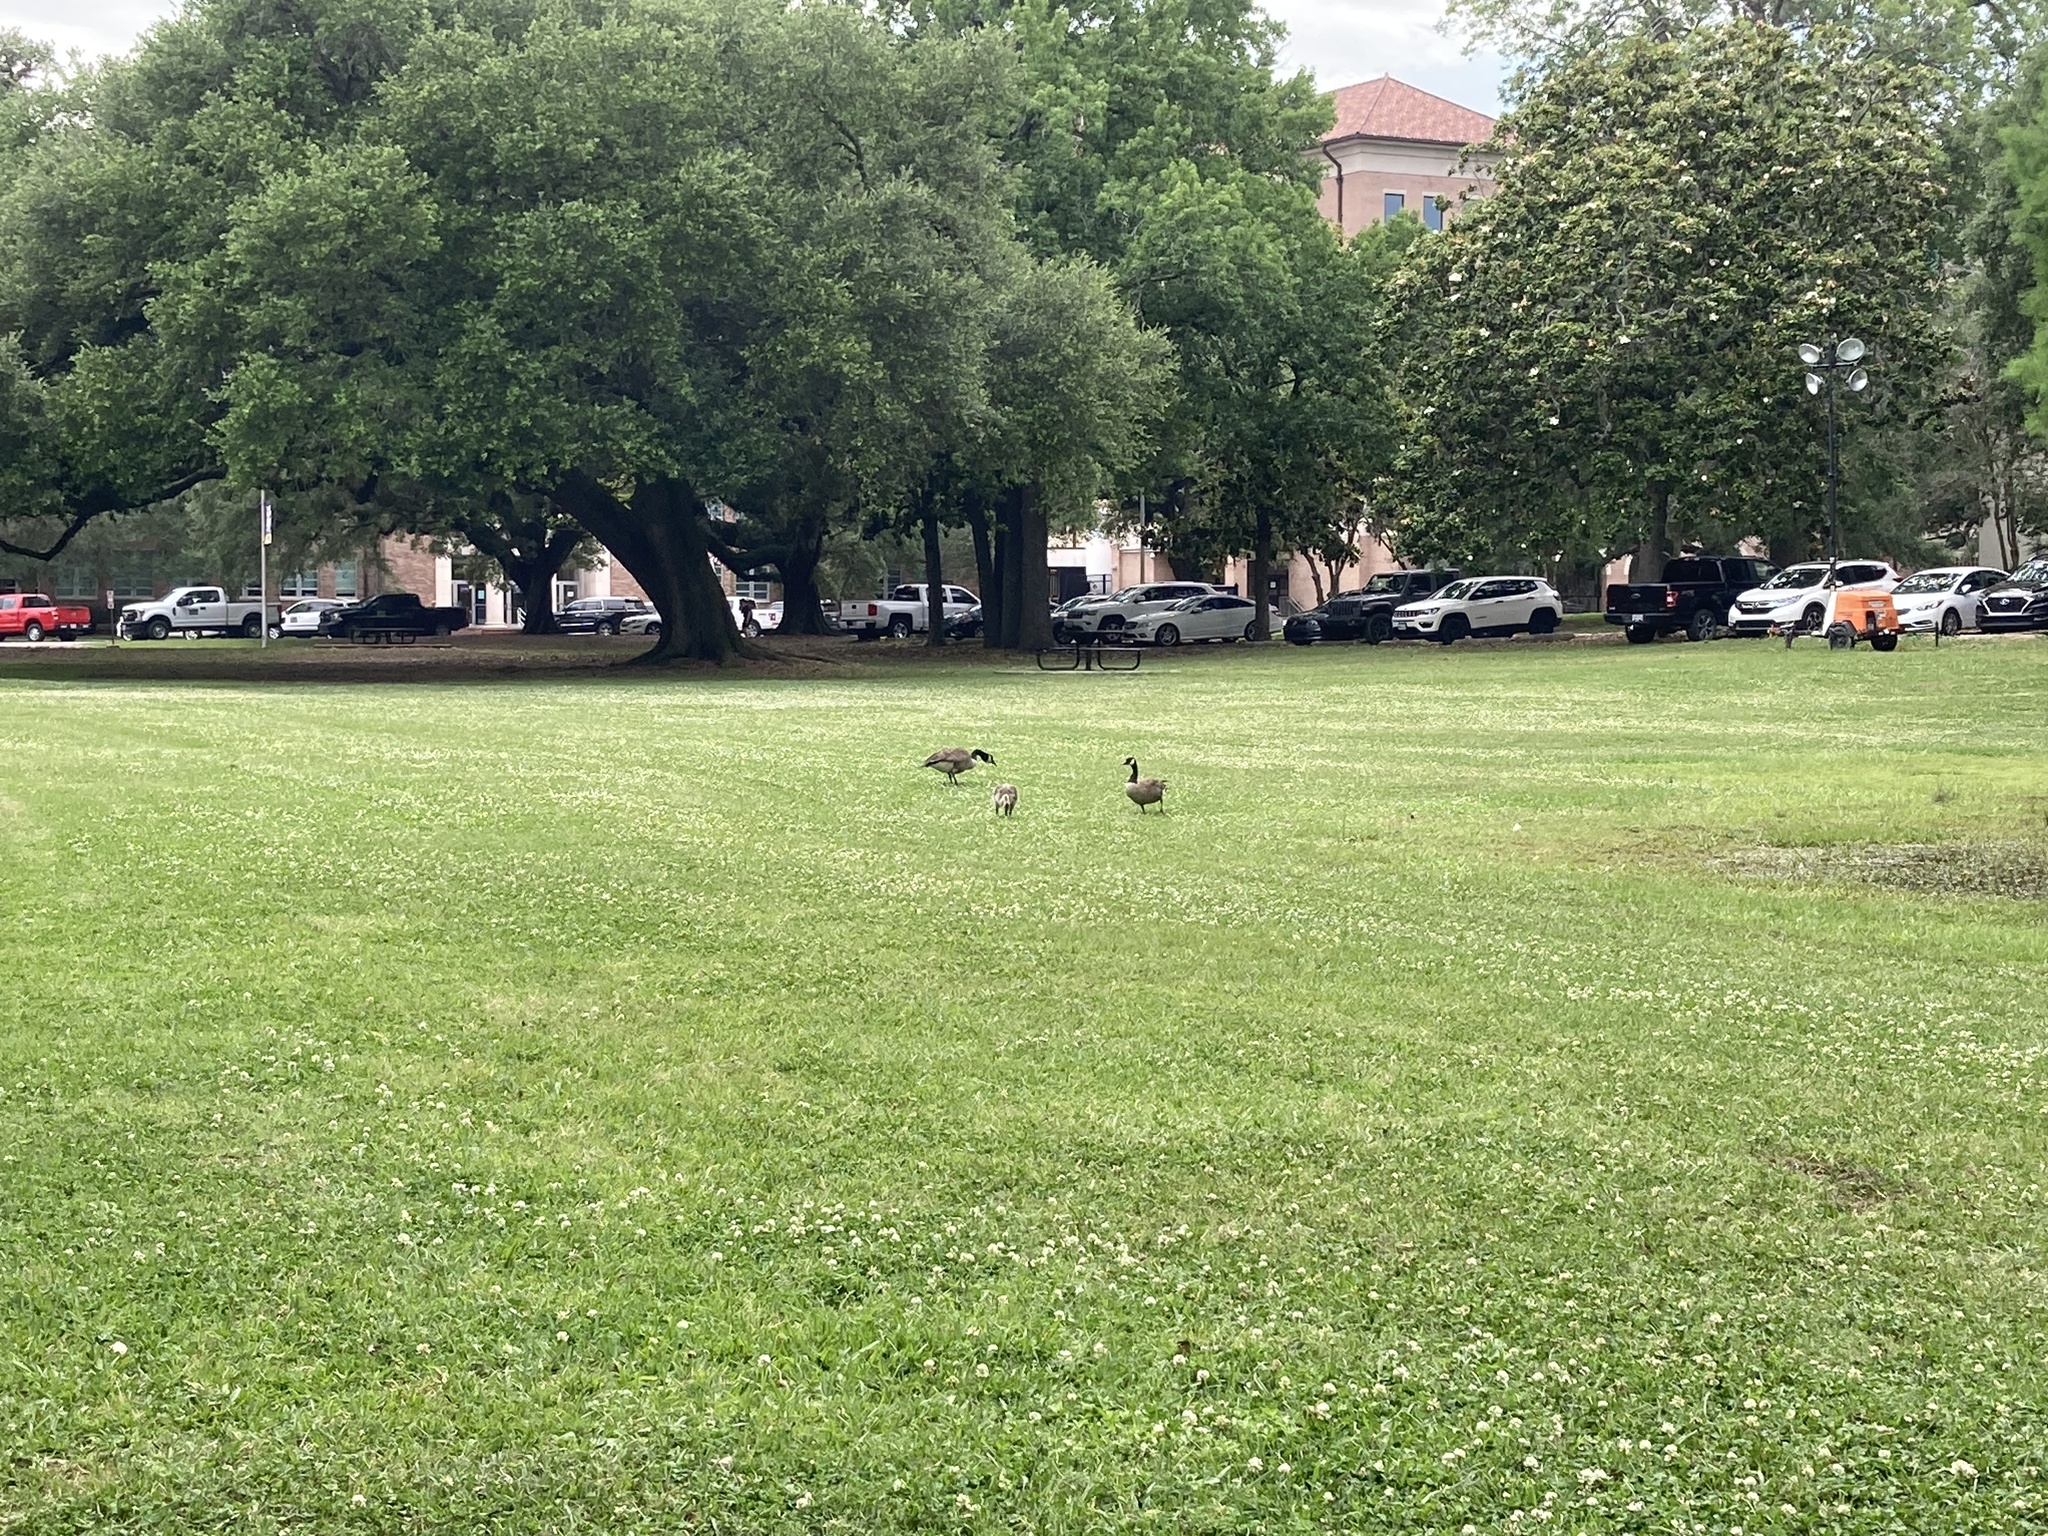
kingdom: Animalia
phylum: Chordata
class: Aves
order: Anseriformes
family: Anatidae
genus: Branta
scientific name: Branta canadensis
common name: Canada goose
